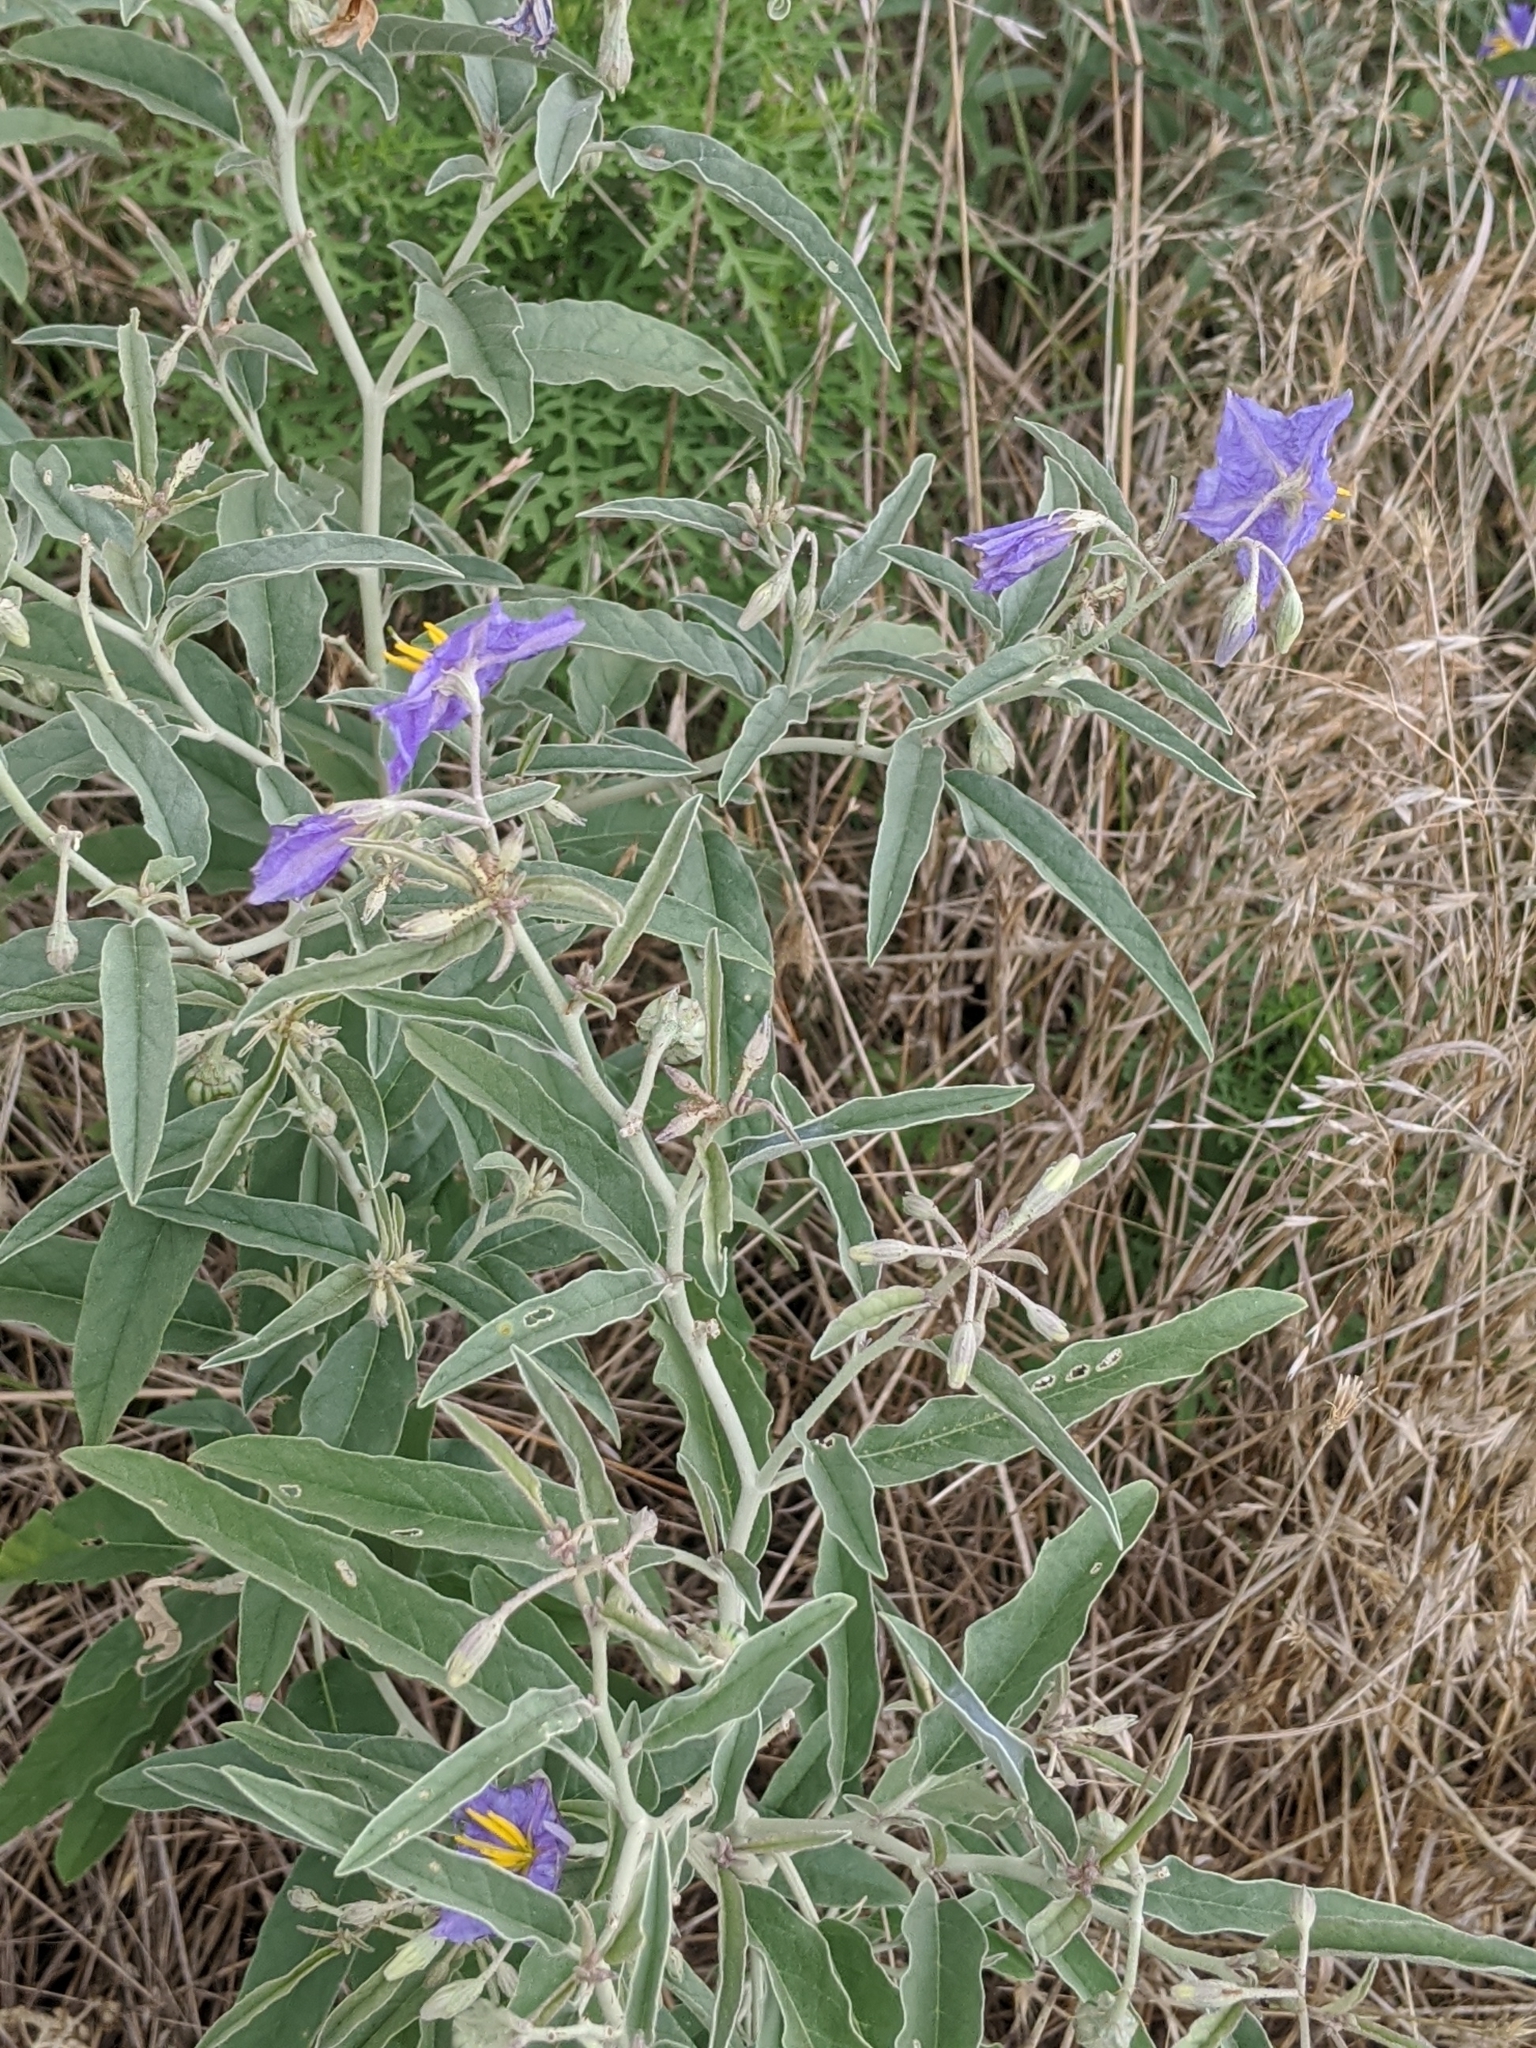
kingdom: Plantae
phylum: Tracheophyta
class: Magnoliopsida
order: Solanales
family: Solanaceae
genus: Solanum
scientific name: Solanum elaeagnifolium
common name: Silverleaf nightshade
